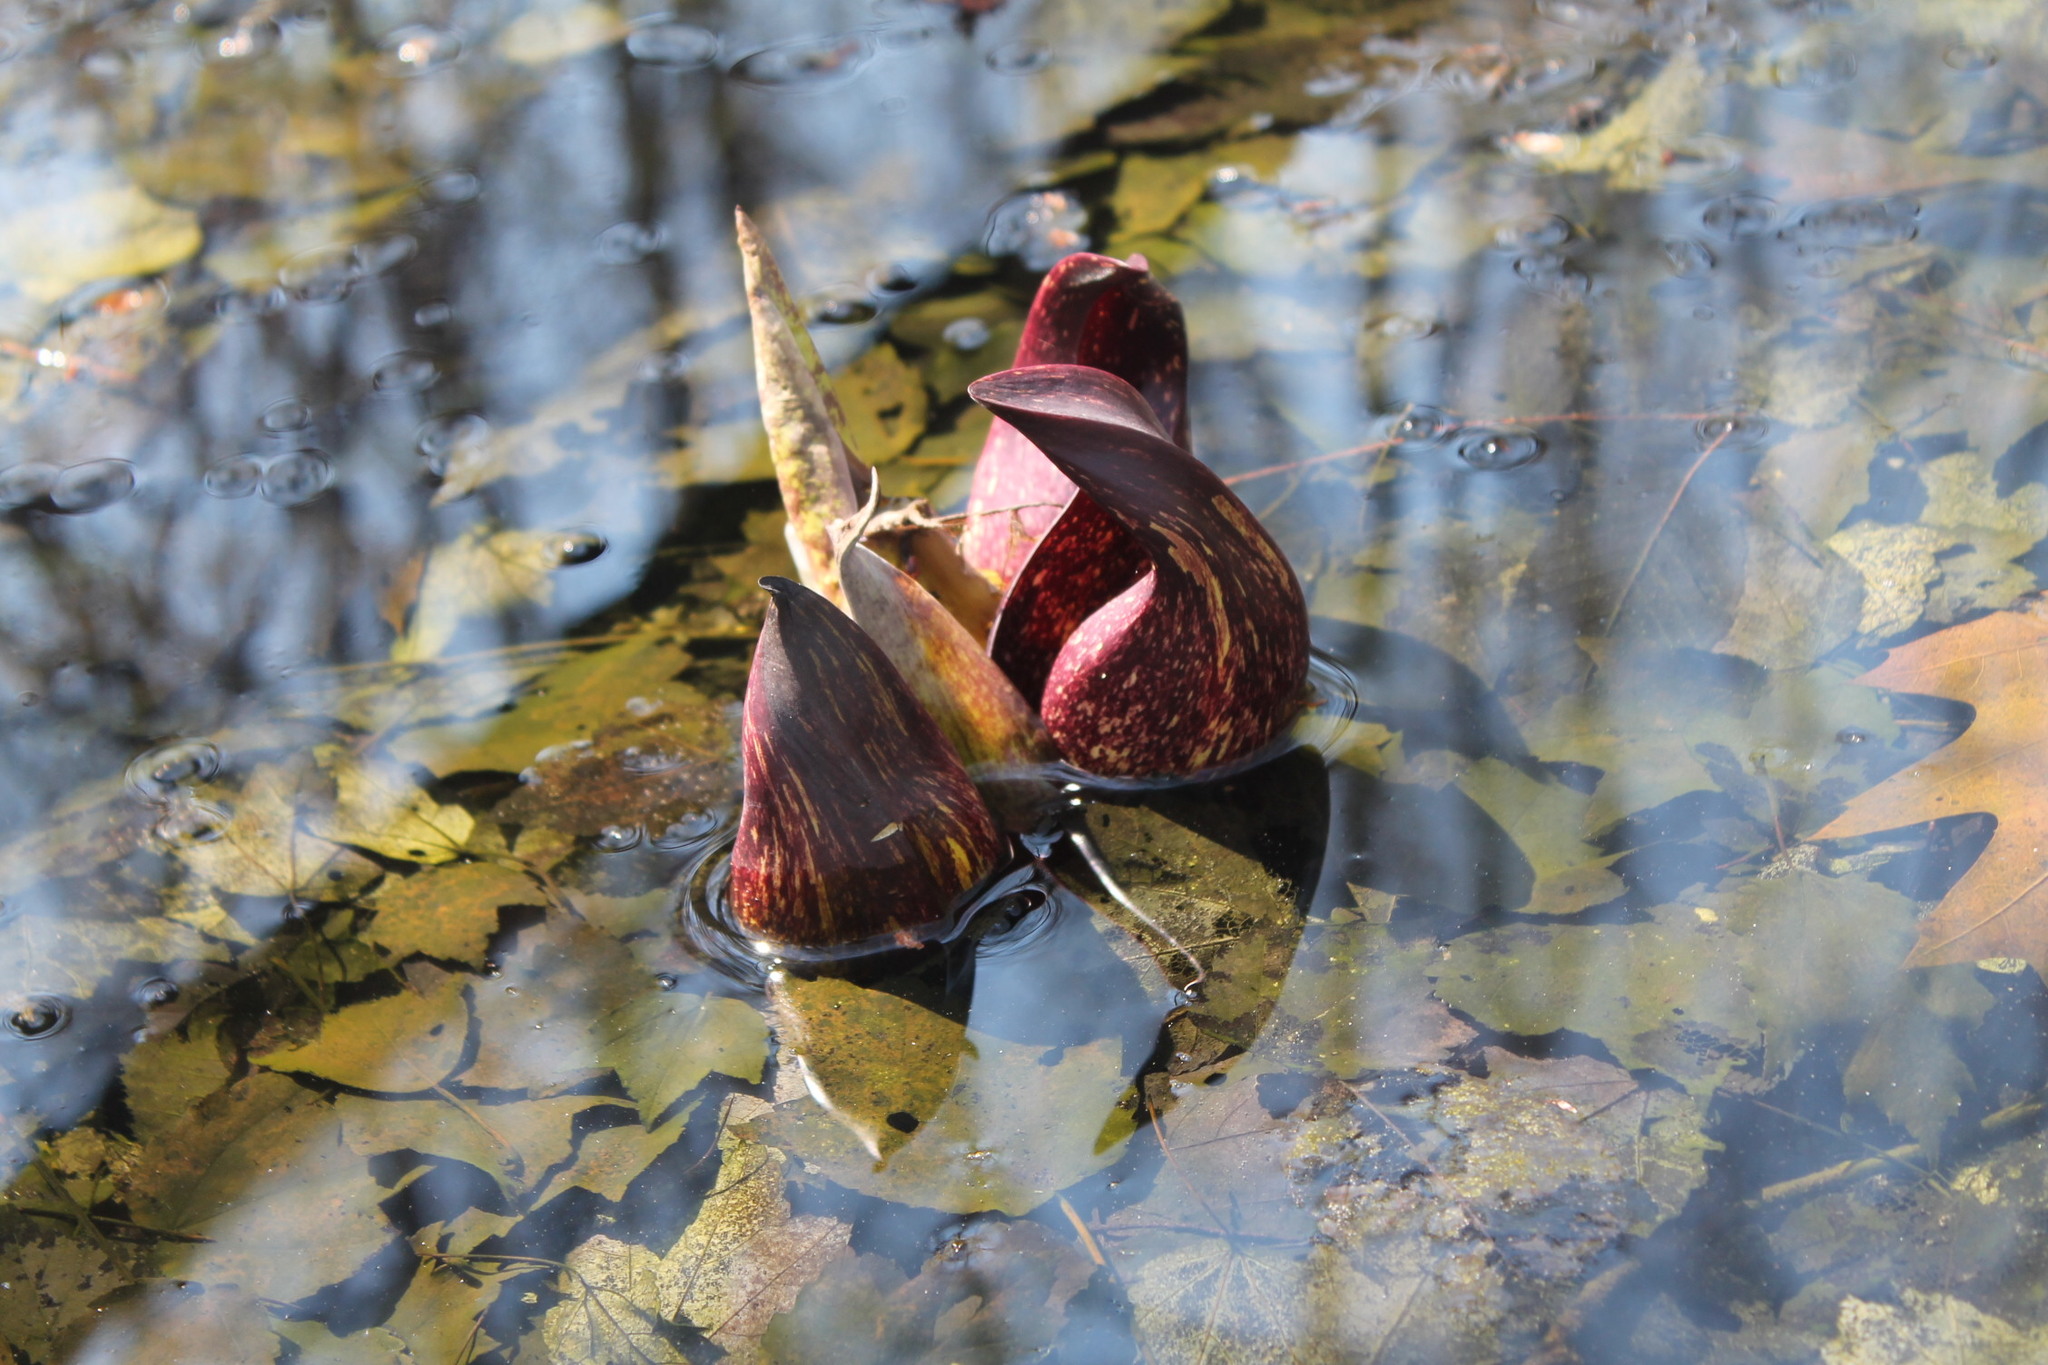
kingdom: Plantae
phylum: Tracheophyta
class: Liliopsida
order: Alismatales
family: Araceae
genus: Symplocarpus
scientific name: Symplocarpus foetidus
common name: Eastern skunk cabbage
